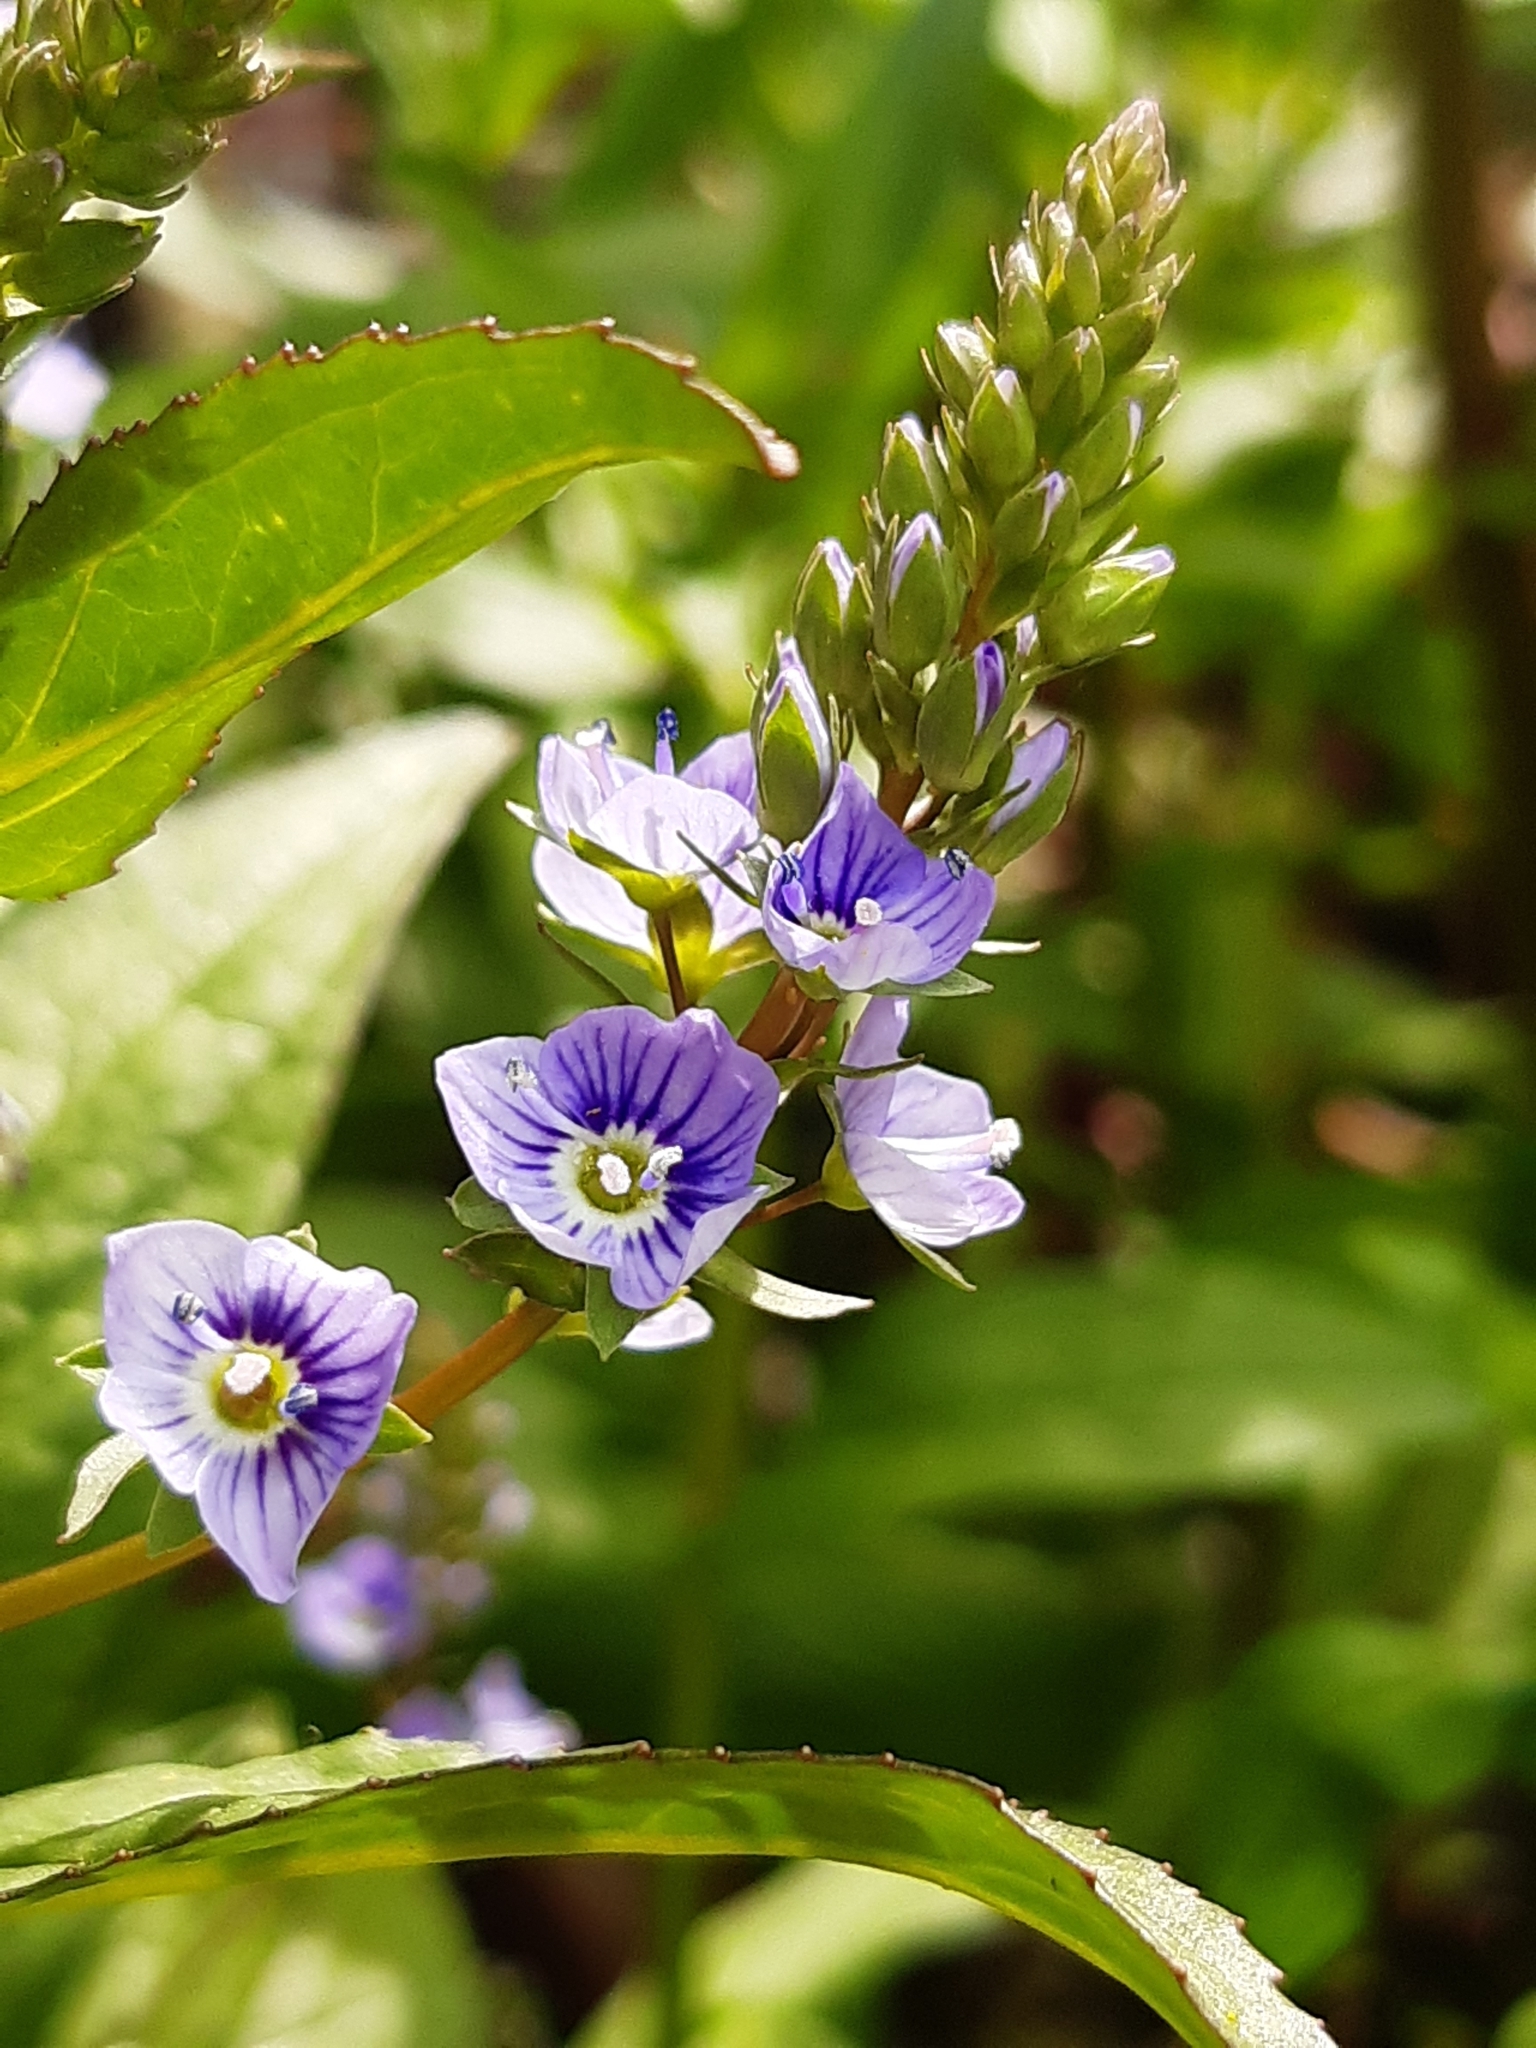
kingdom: Plantae
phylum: Tracheophyta
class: Magnoliopsida
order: Lamiales
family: Plantaginaceae
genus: Veronica
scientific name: Veronica anagallis-aquatica
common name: Water speedwell
